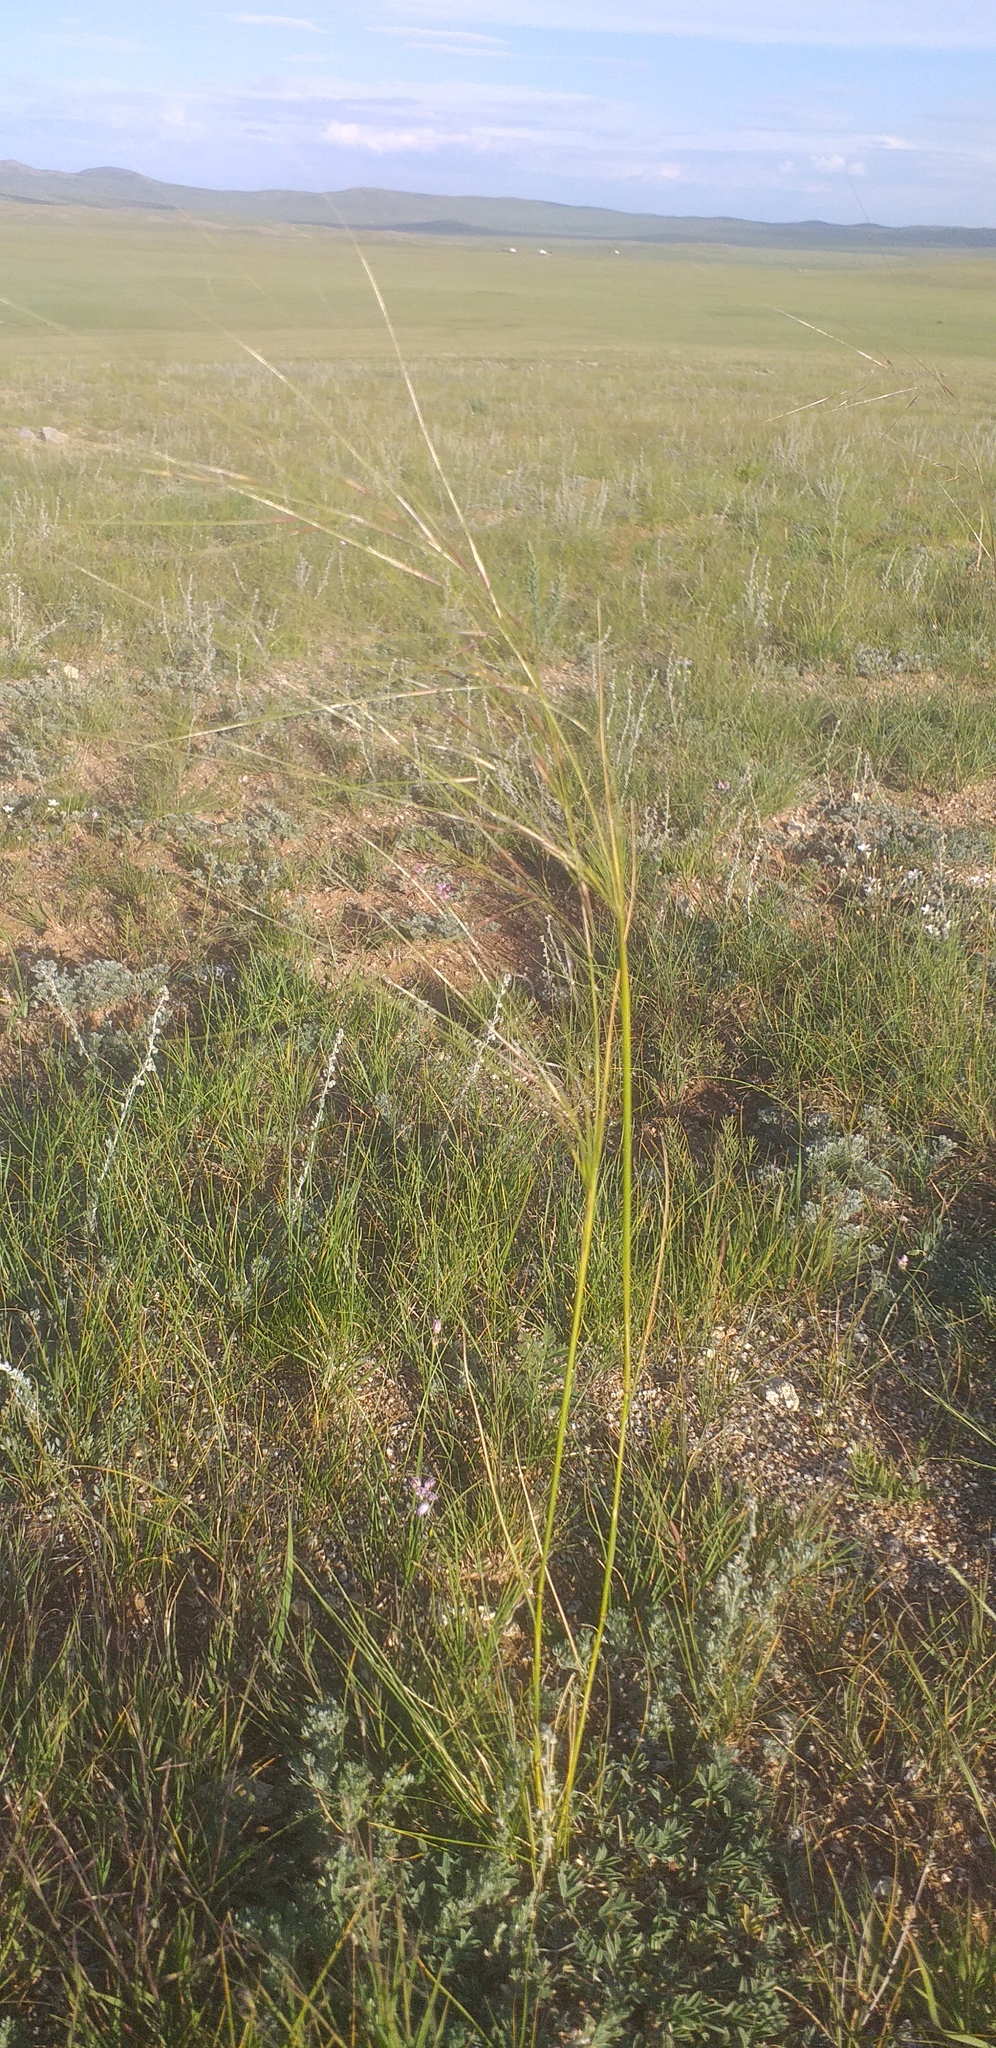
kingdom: Plantae
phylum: Tracheophyta
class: Liliopsida
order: Poales
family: Poaceae
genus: Stipa
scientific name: Stipa krylovii
